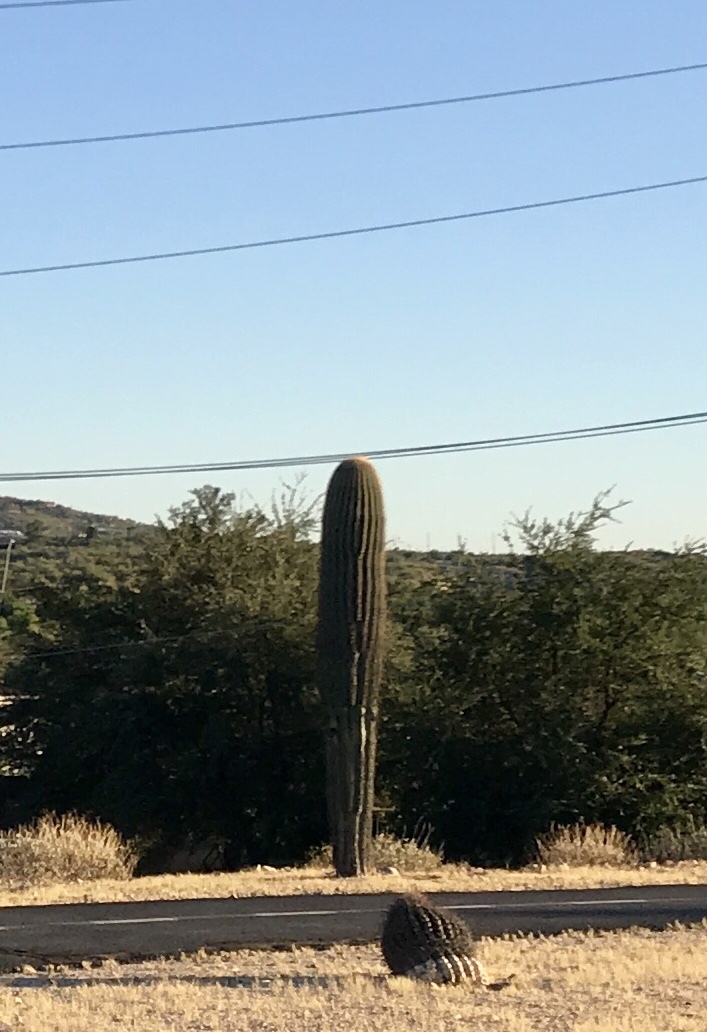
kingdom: Plantae
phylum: Tracheophyta
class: Magnoliopsida
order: Caryophyllales
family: Cactaceae
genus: Carnegiea
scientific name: Carnegiea gigantea
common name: Saguaro
